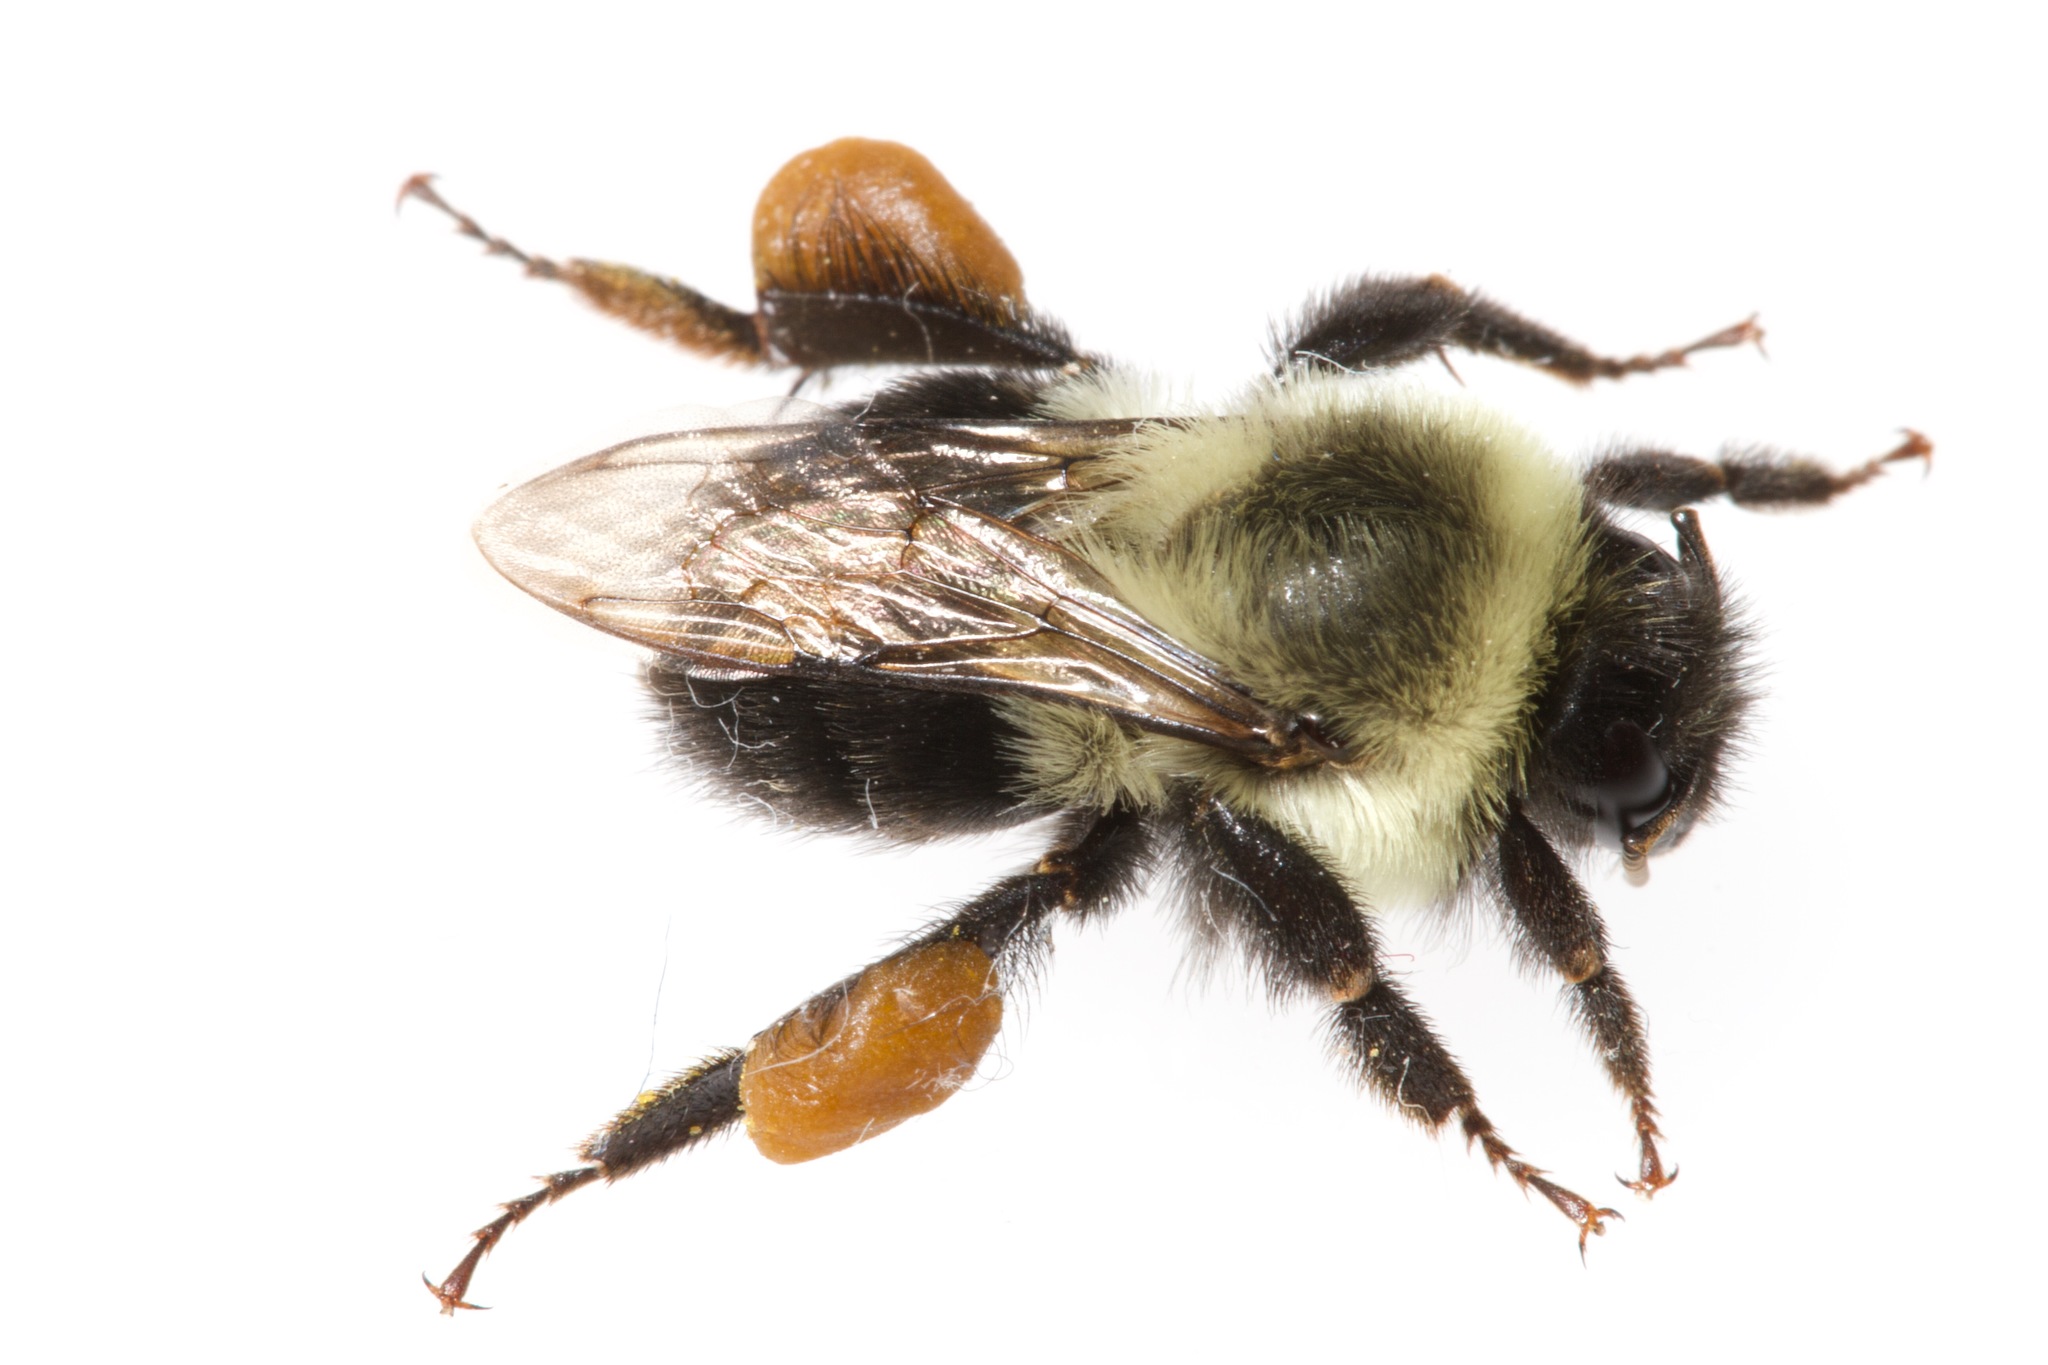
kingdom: Animalia
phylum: Arthropoda
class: Insecta
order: Hymenoptera
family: Apidae
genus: Bombus
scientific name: Bombus impatiens
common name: Common eastern bumble bee
